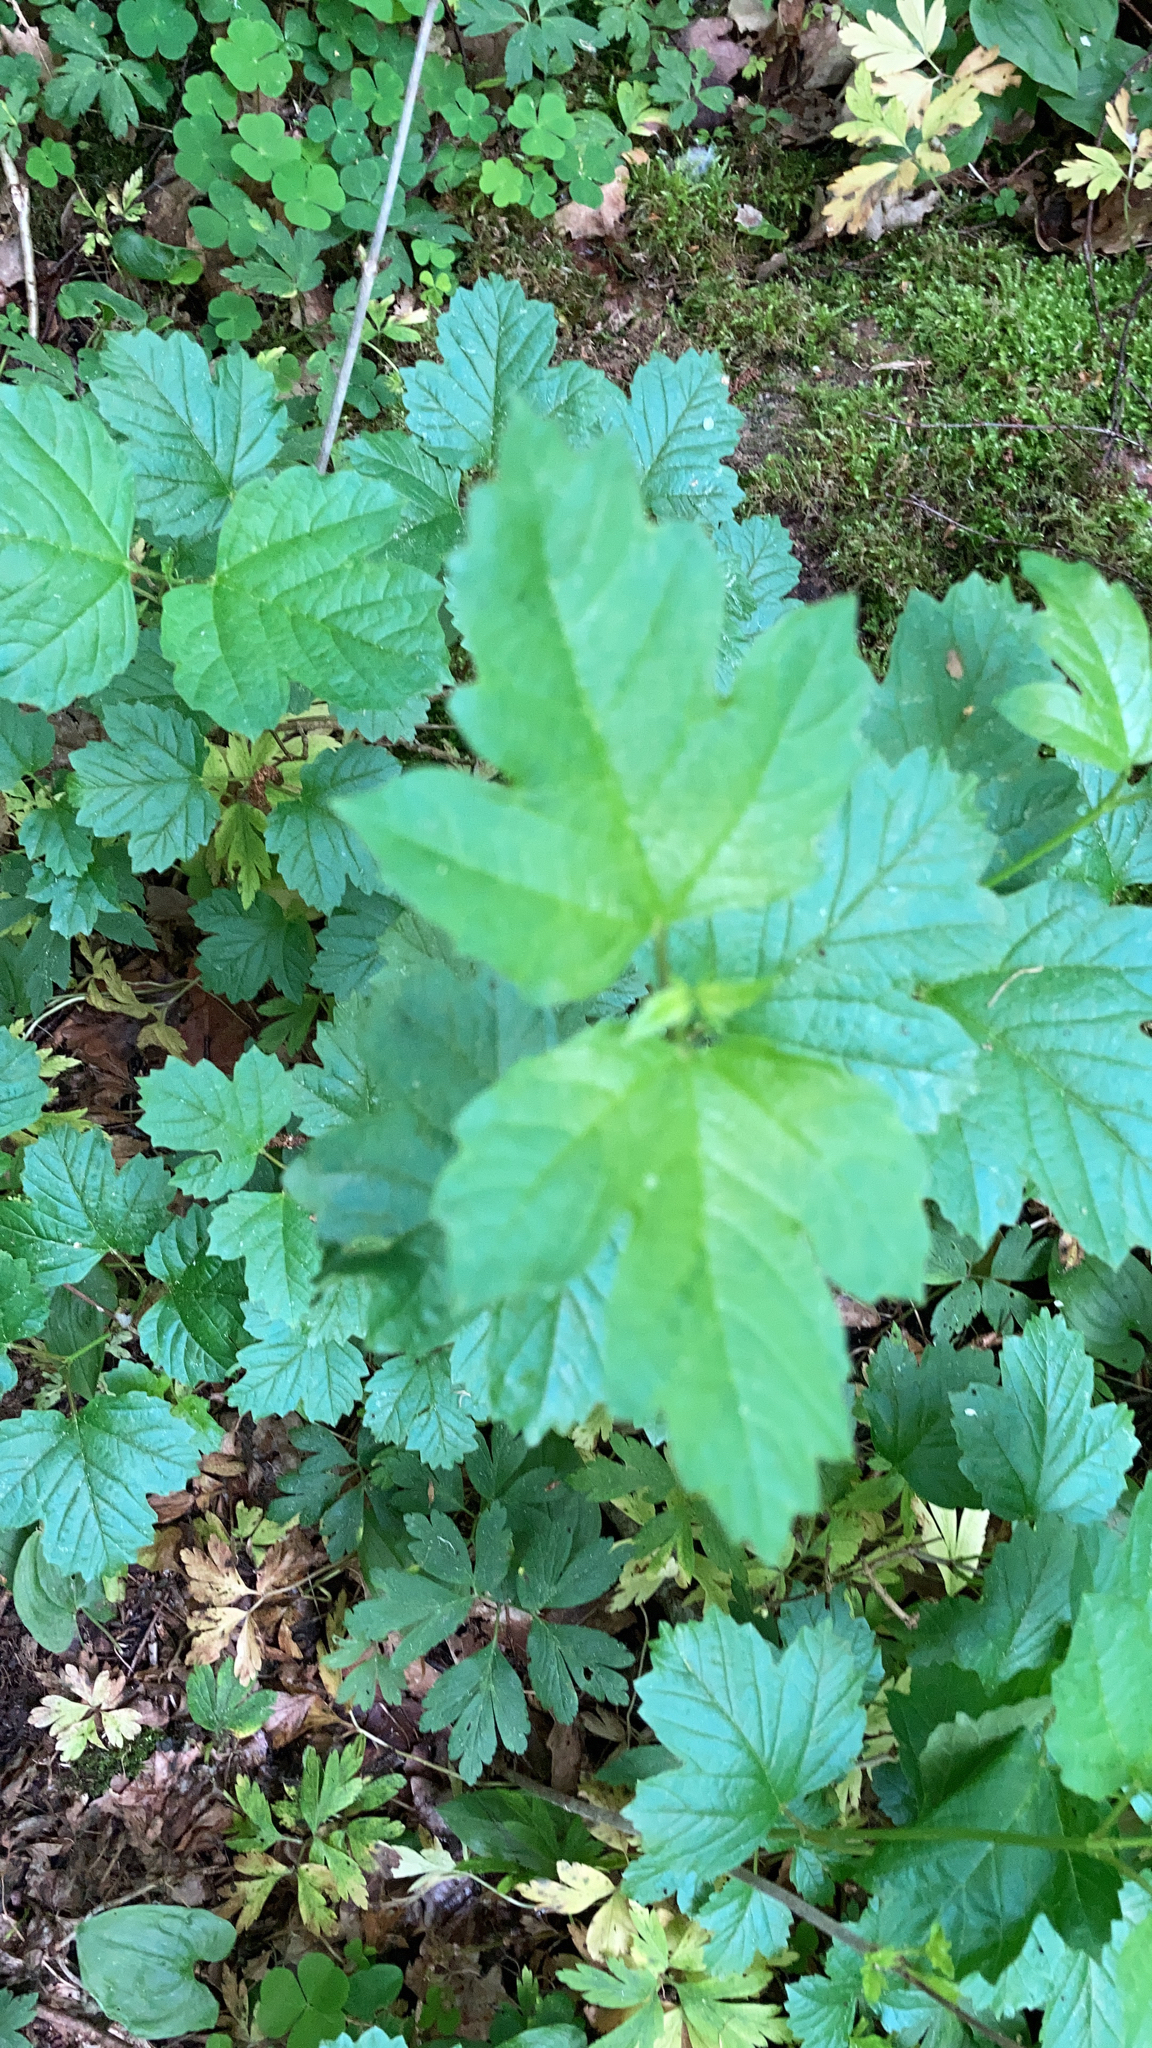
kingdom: Plantae
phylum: Tracheophyta
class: Magnoliopsida
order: Dipsacales
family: Viburnaceae
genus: Viburnum
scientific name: Viburnum opulus
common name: Guelder-rose
